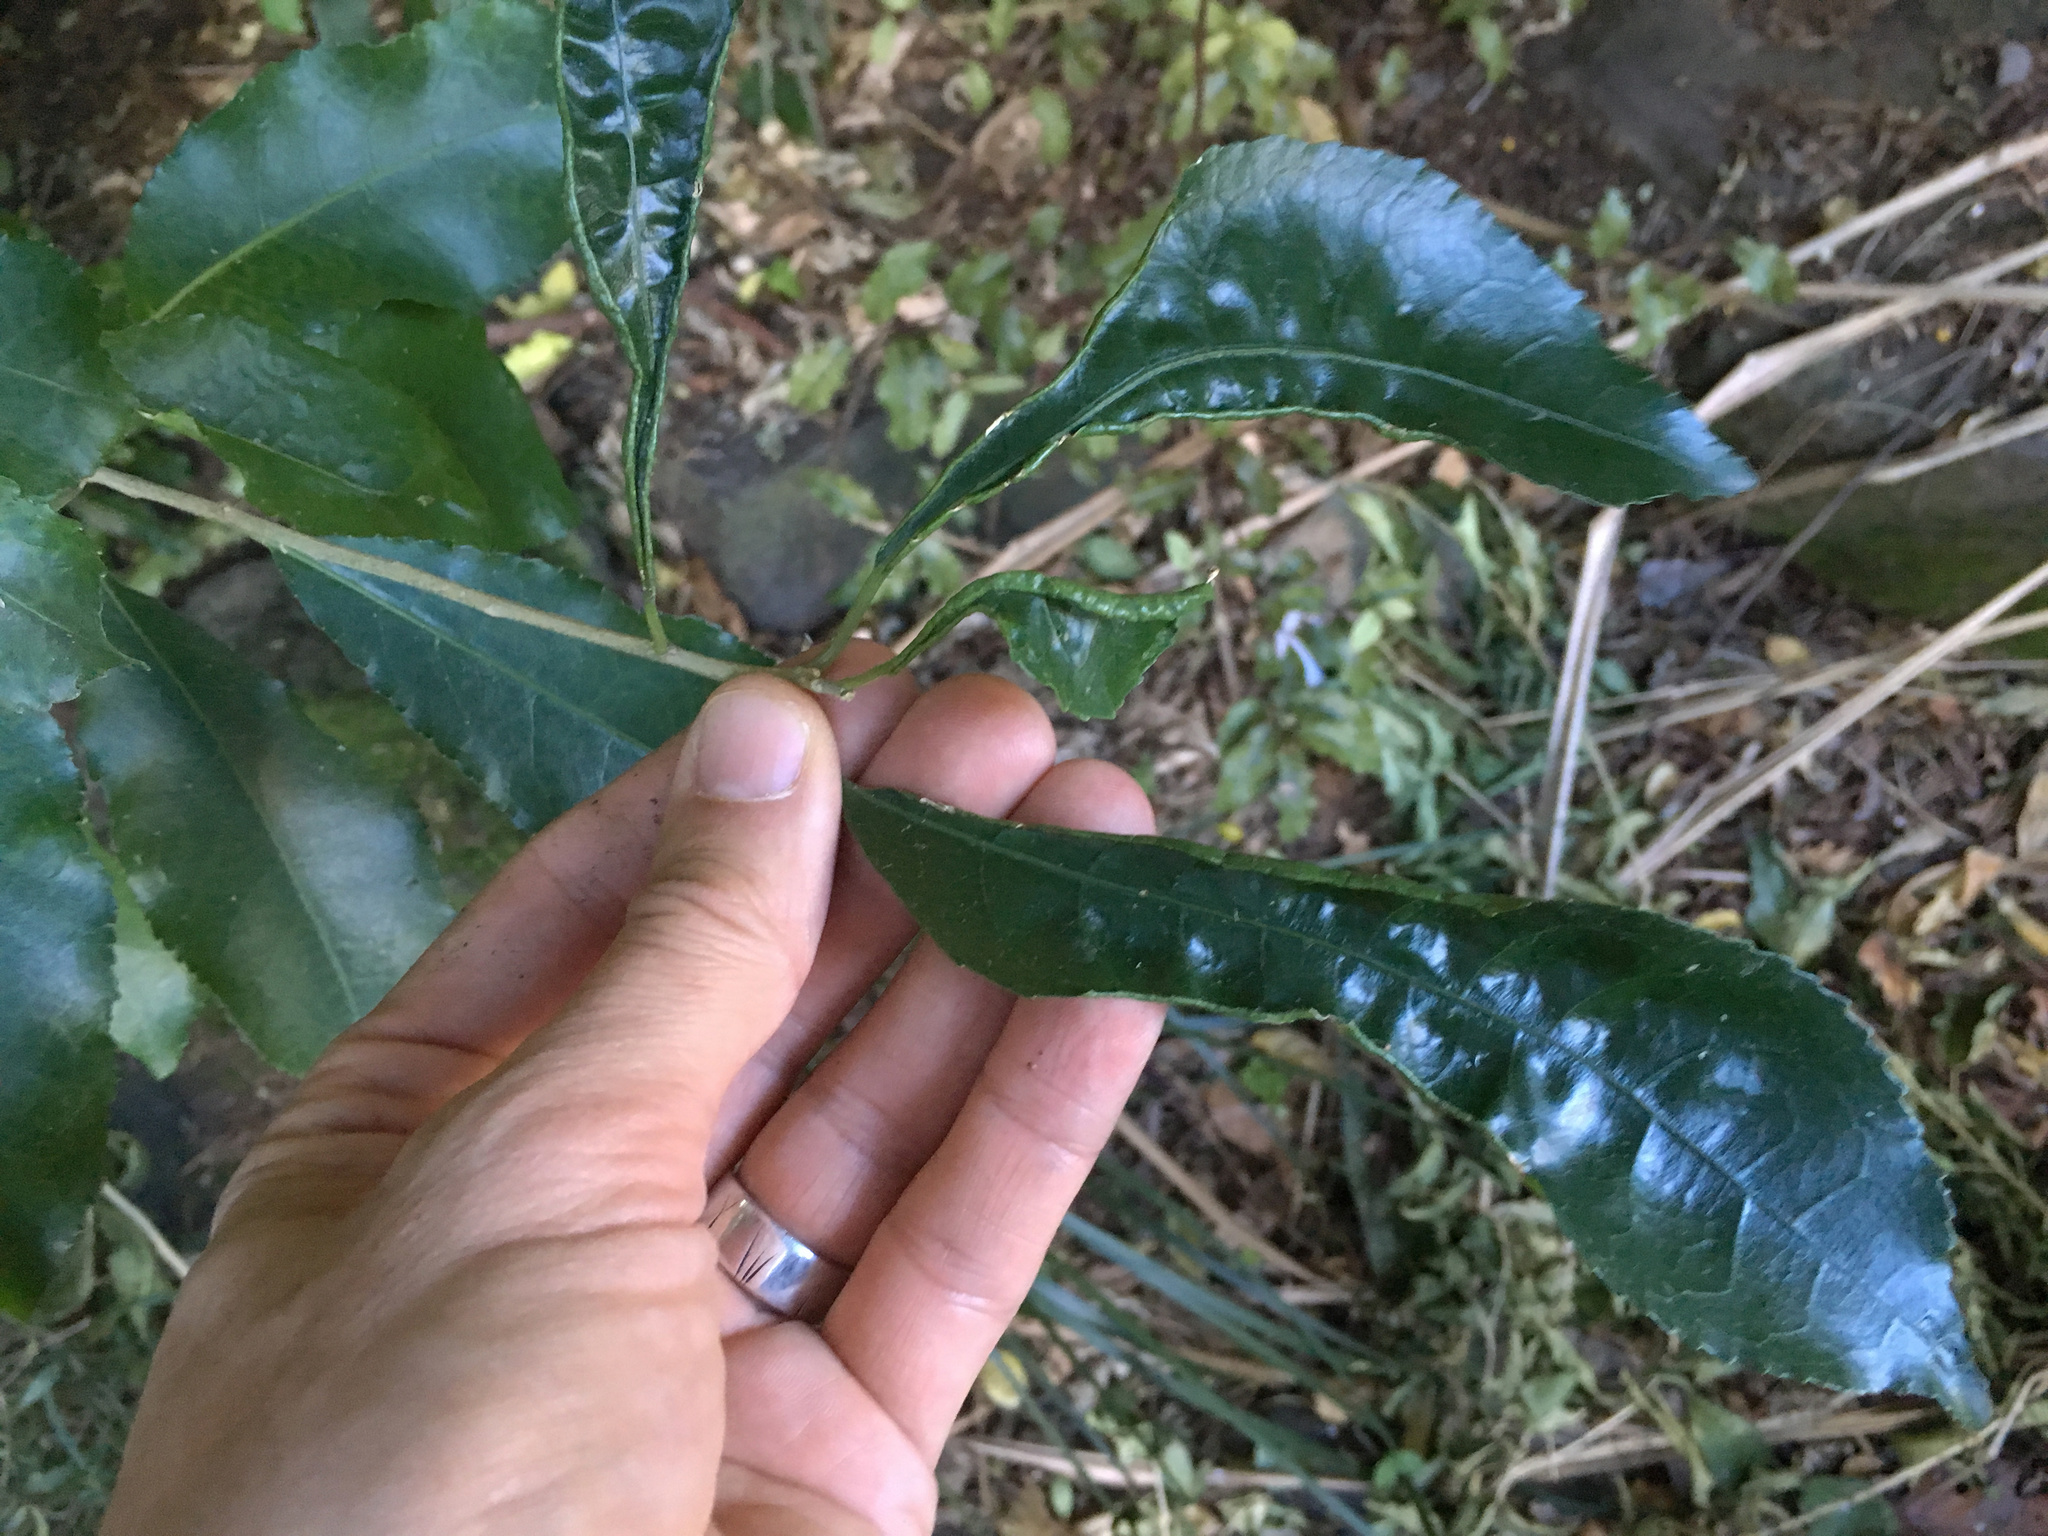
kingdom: Animalia
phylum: Arthropoda
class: Arachnida
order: Trombidiformes
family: Eriophyidae
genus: Aceria
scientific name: Aceria
